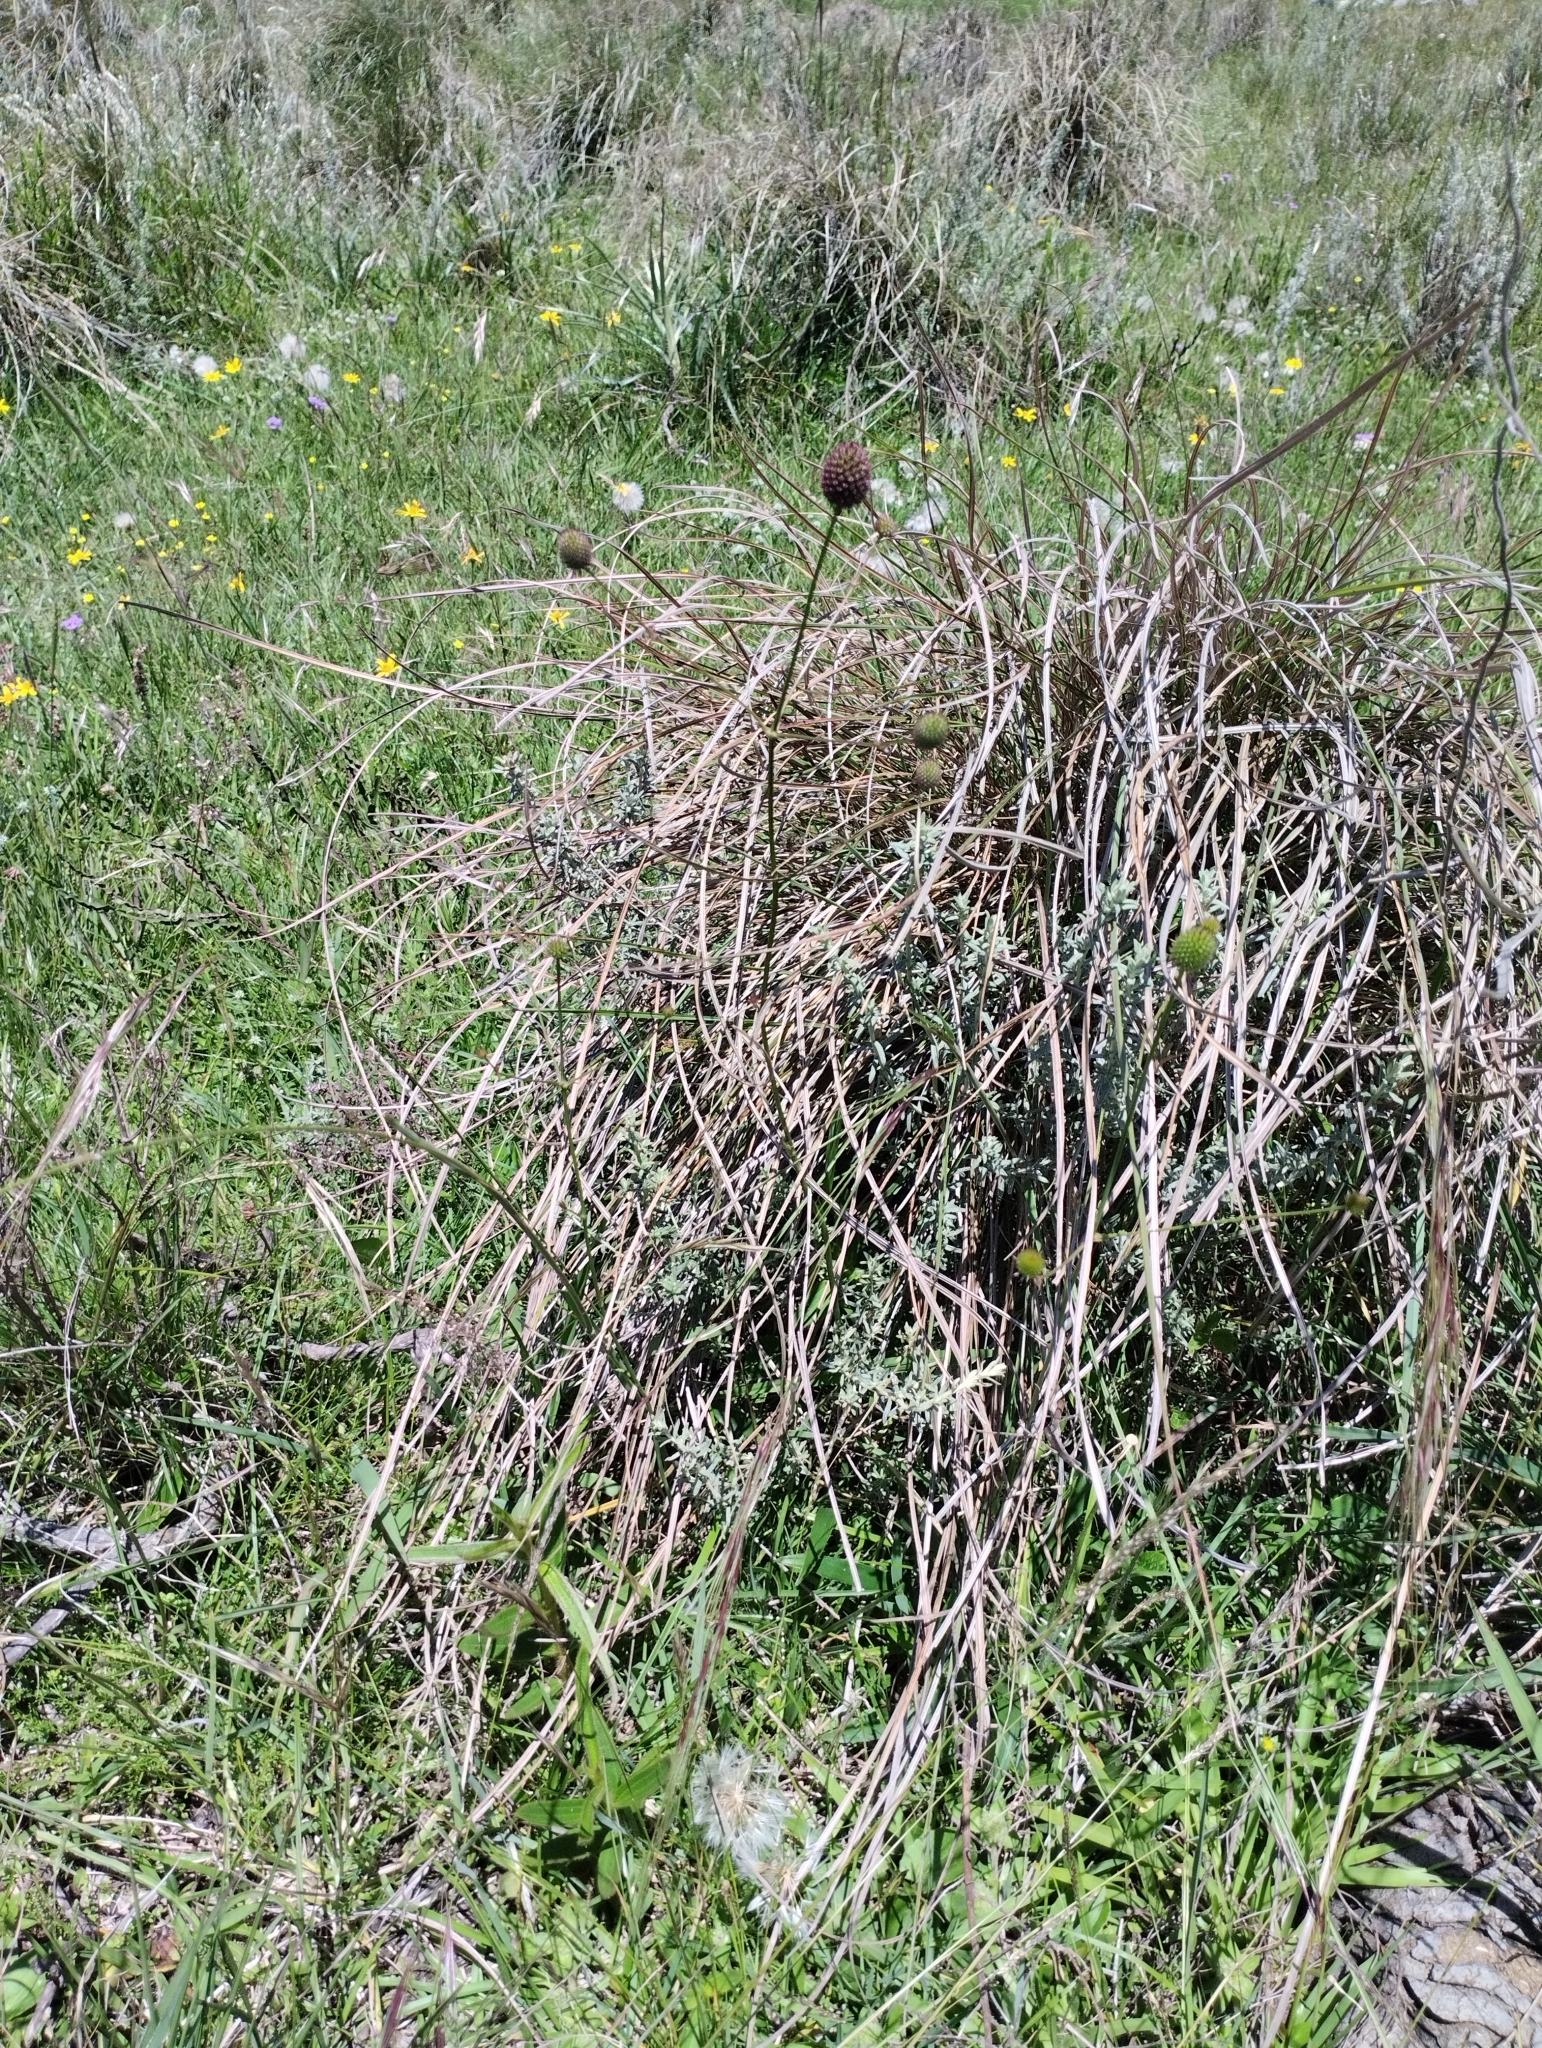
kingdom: Plantae
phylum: Tracheophyta
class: Magnoliopsida
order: Apiales
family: Apiaceae
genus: Eryngium
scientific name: Eryngium sanguisorba
